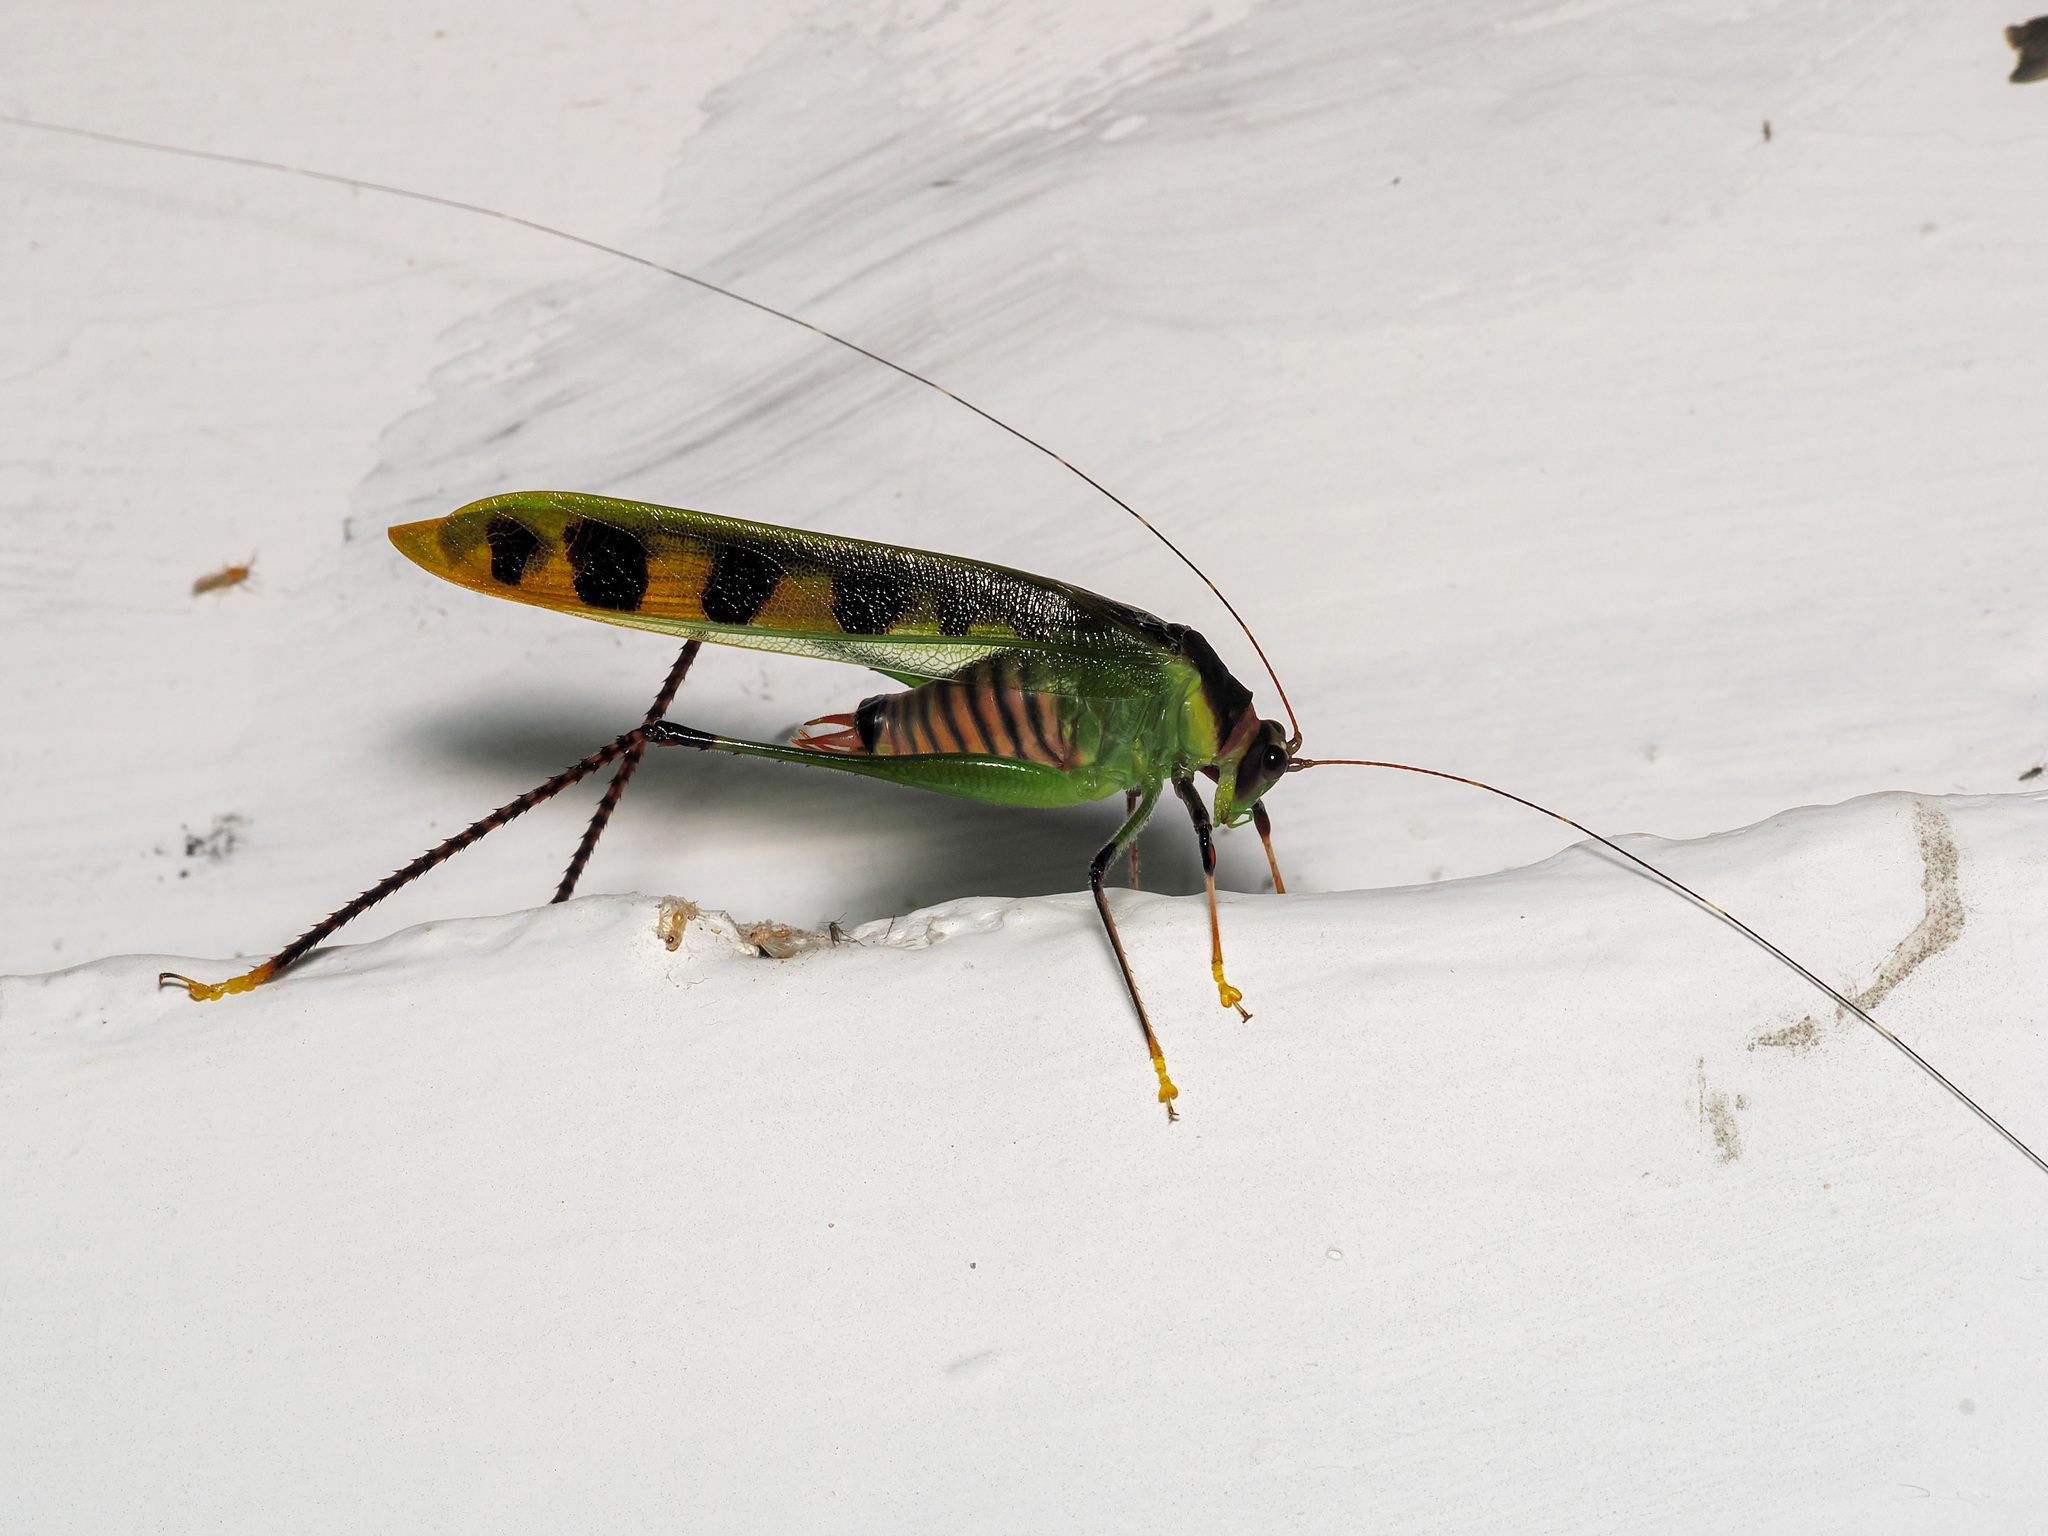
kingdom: Animalia
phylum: Arthropoda
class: Insecta
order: Orthoptera
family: Tettigoniidae
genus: Calopsyra
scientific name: Calopsyra octomaculata
